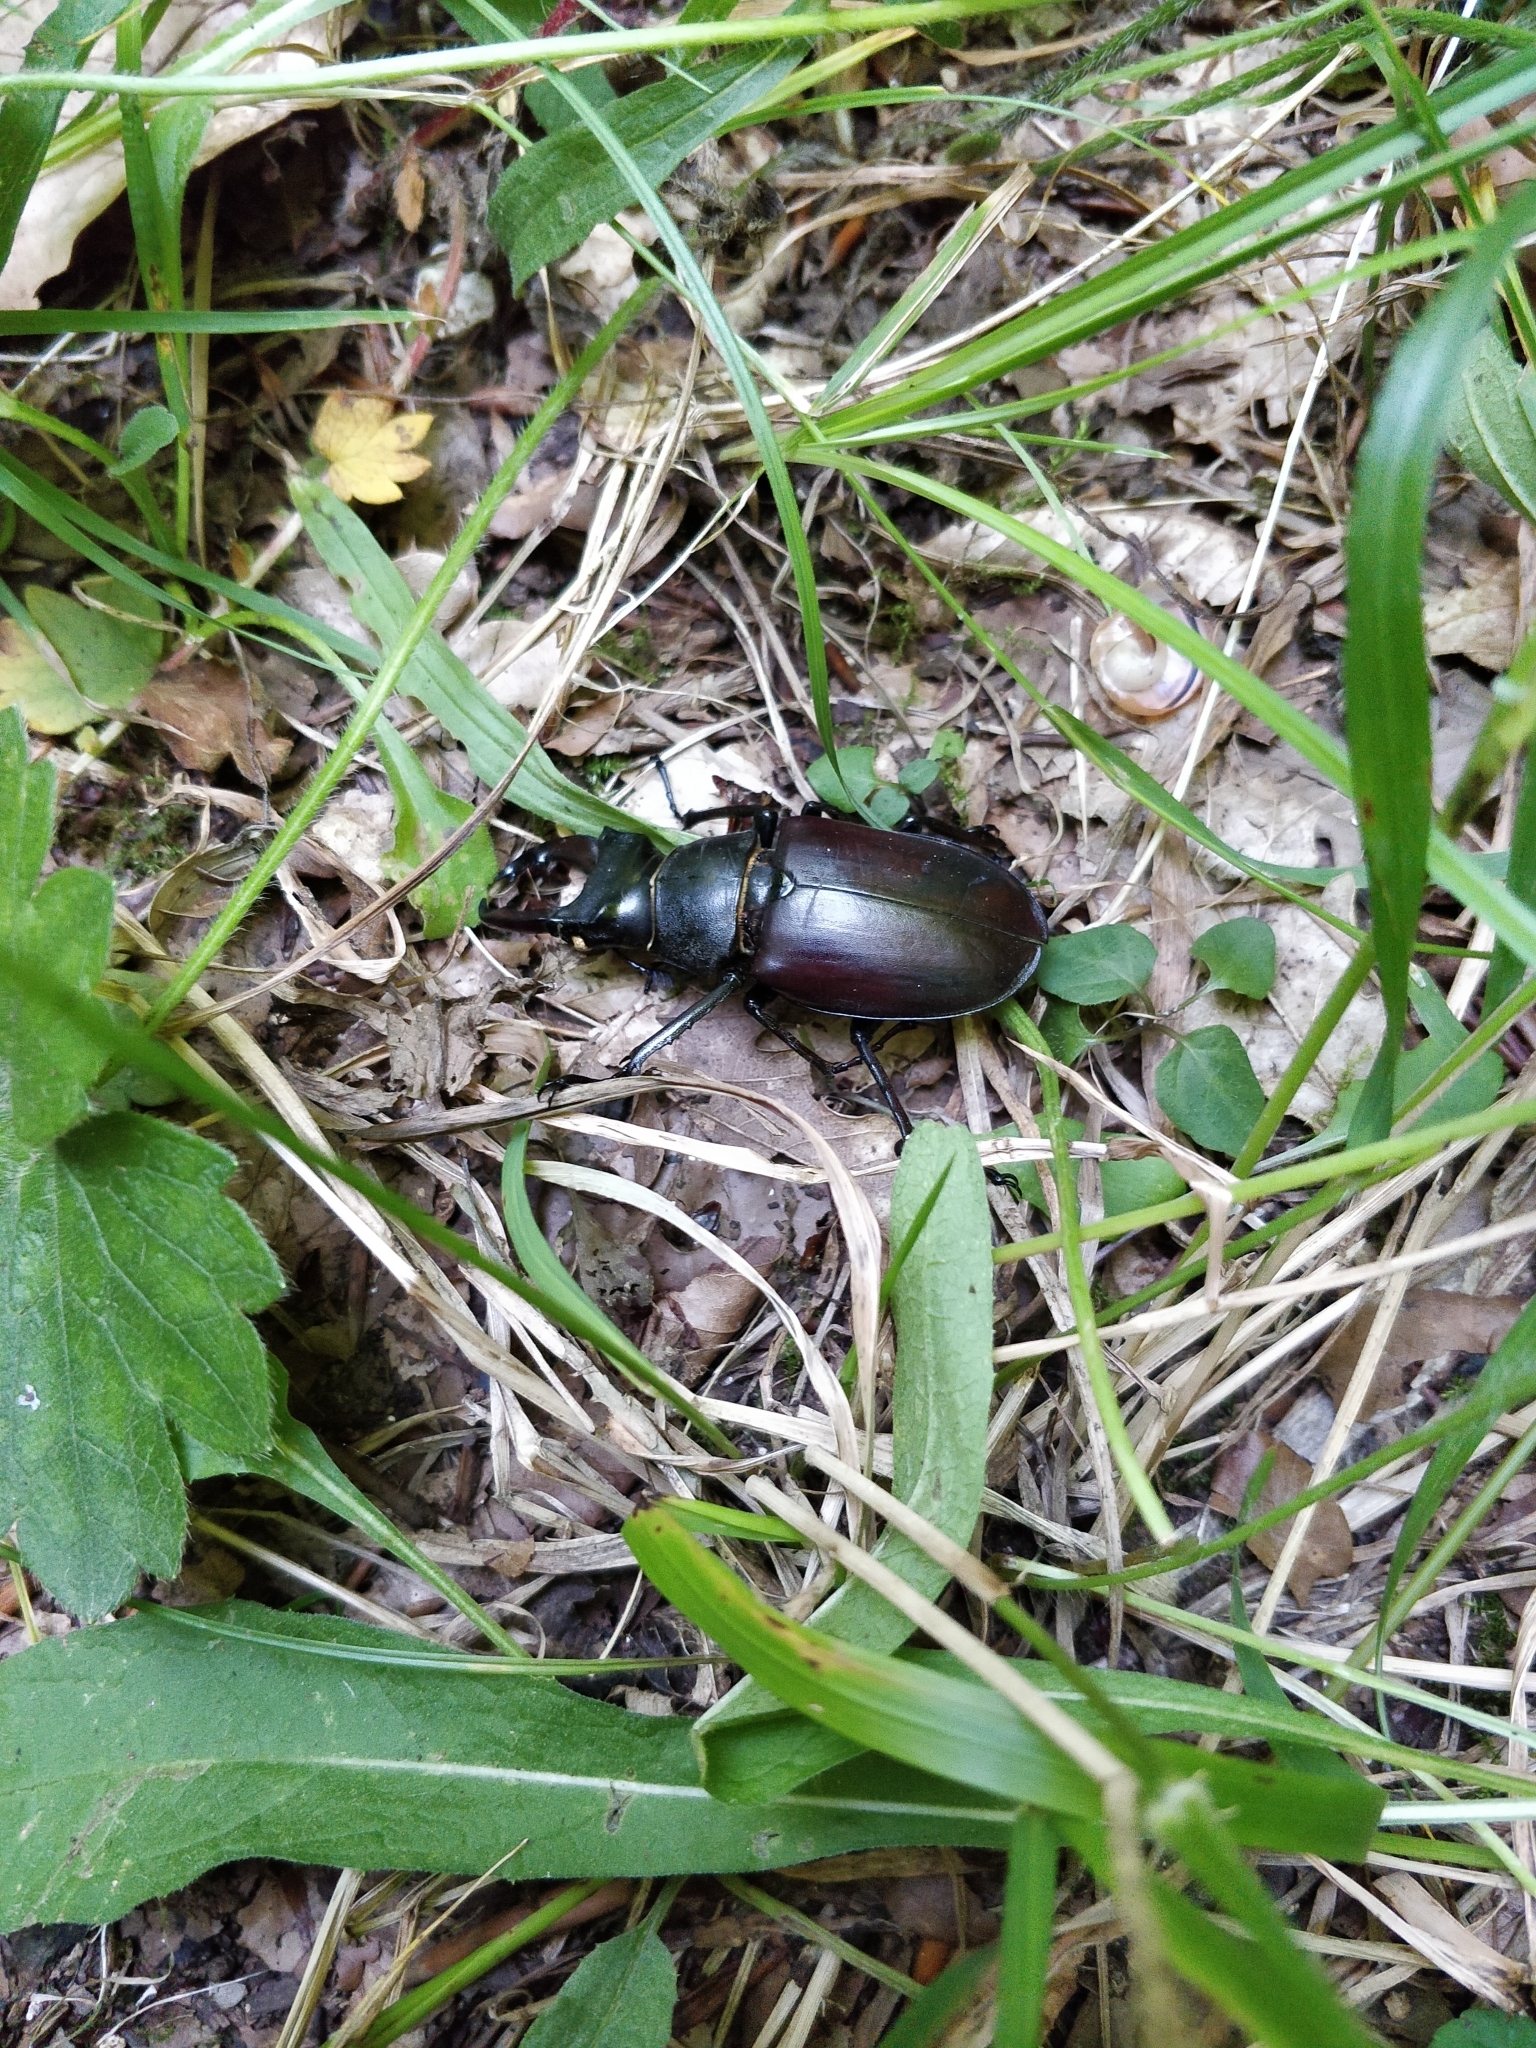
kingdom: Animalia
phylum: Arthropoda
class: Insecta
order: Coleoptera
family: Lucanidae
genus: Lucanus
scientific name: Lucanus cervus
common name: Stag beetle
